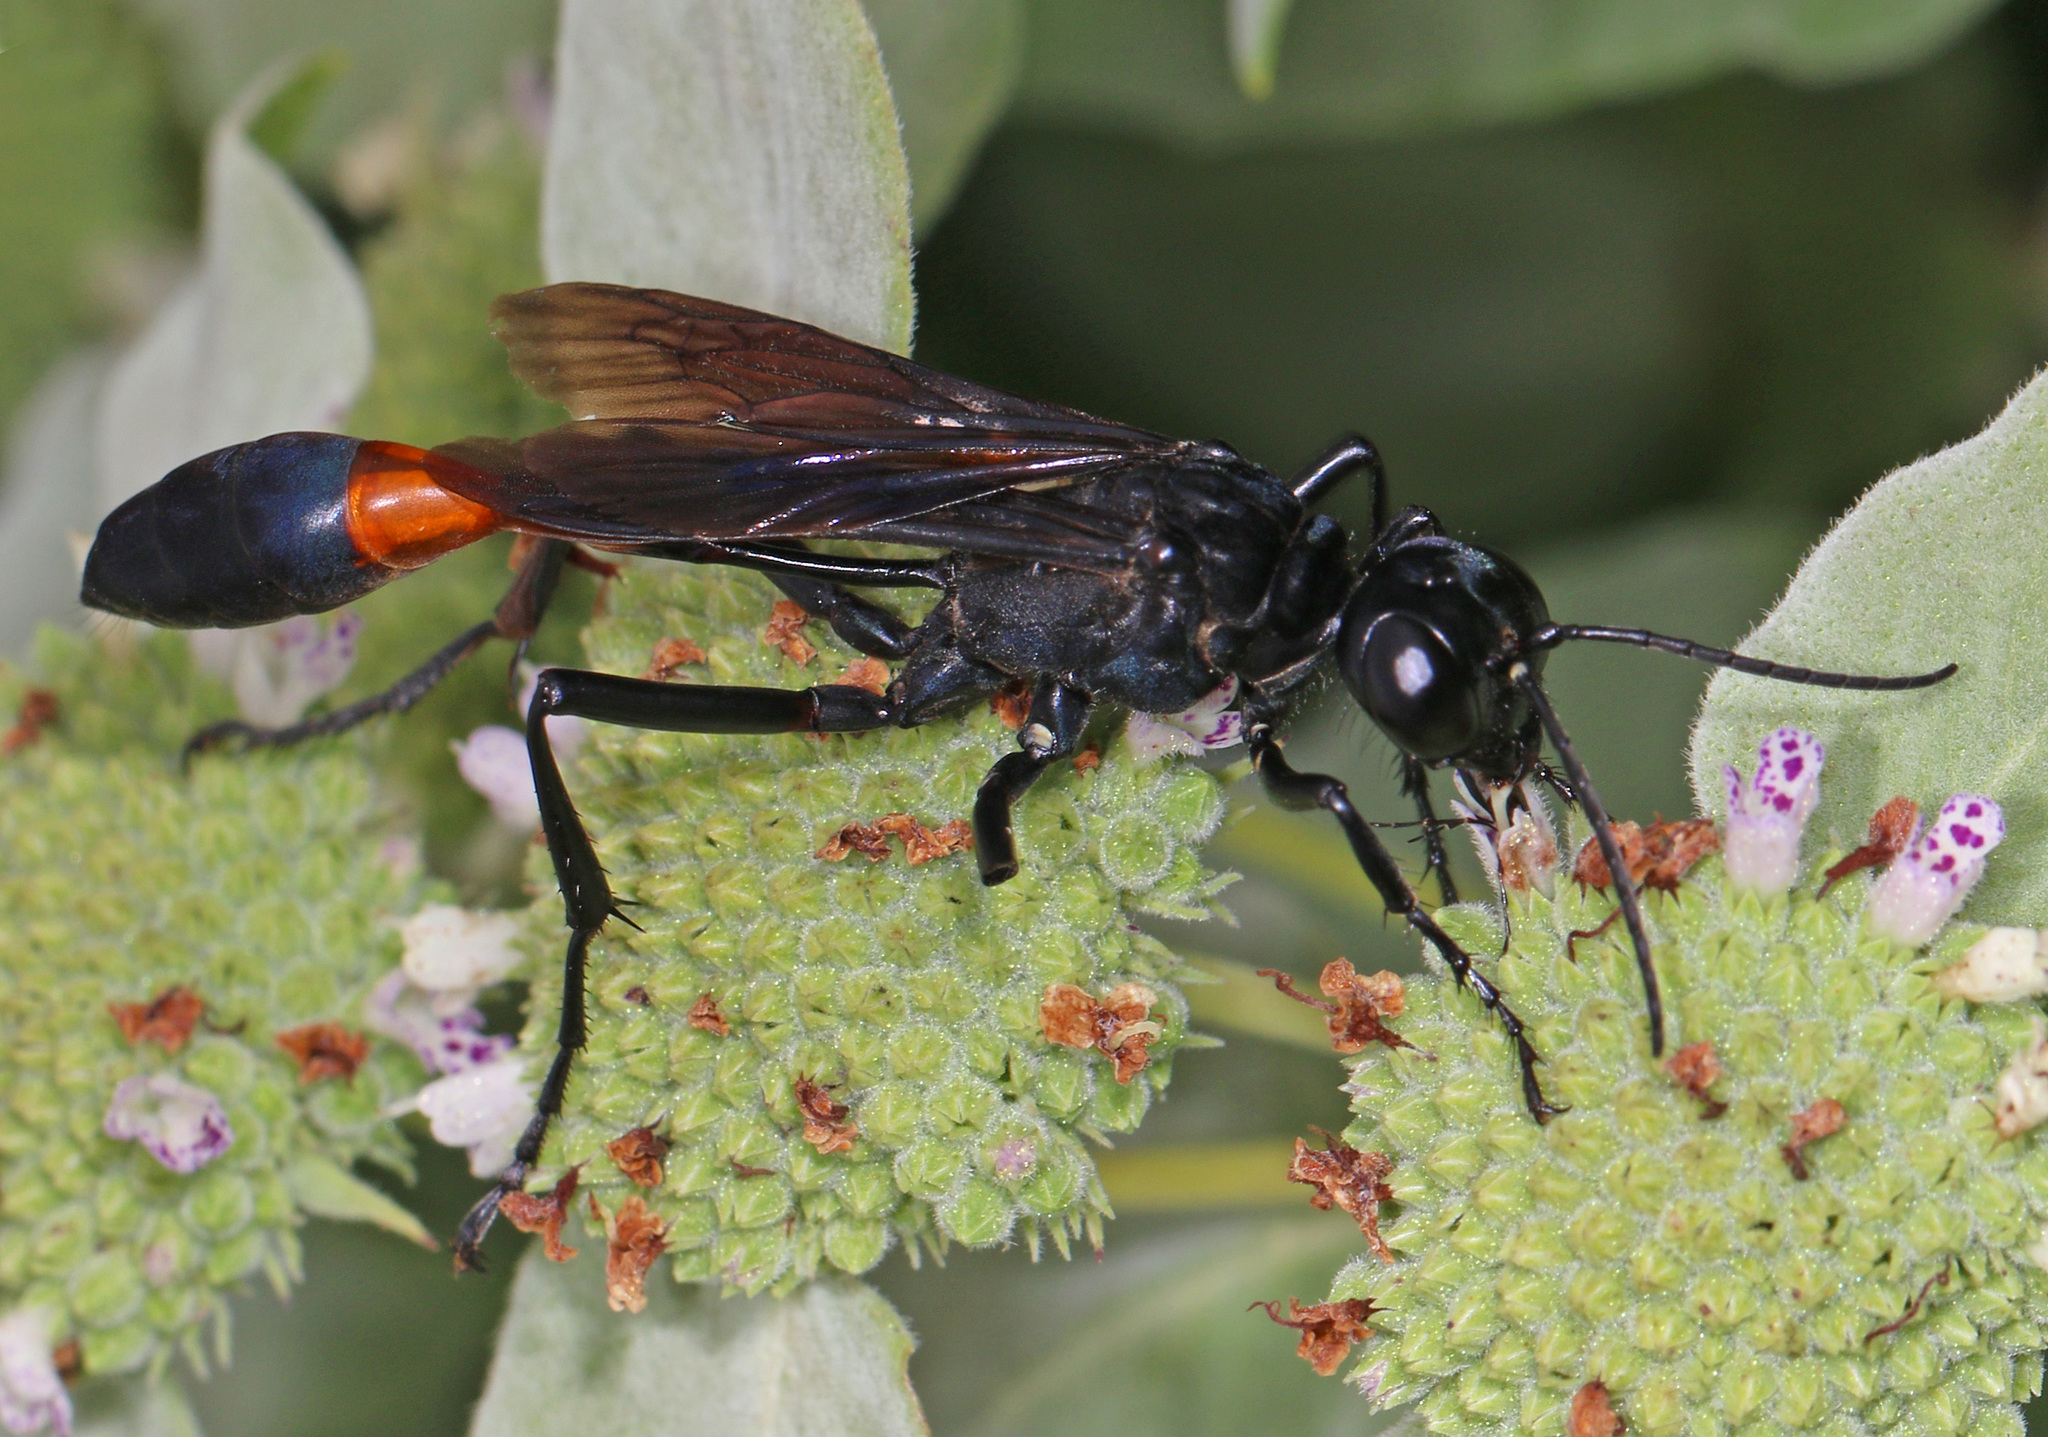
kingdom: Animalia
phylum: Arthropoda
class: Insecta
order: Hymenoptera
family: Sphecidae
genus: Ammophila
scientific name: Ammophila nigricans
